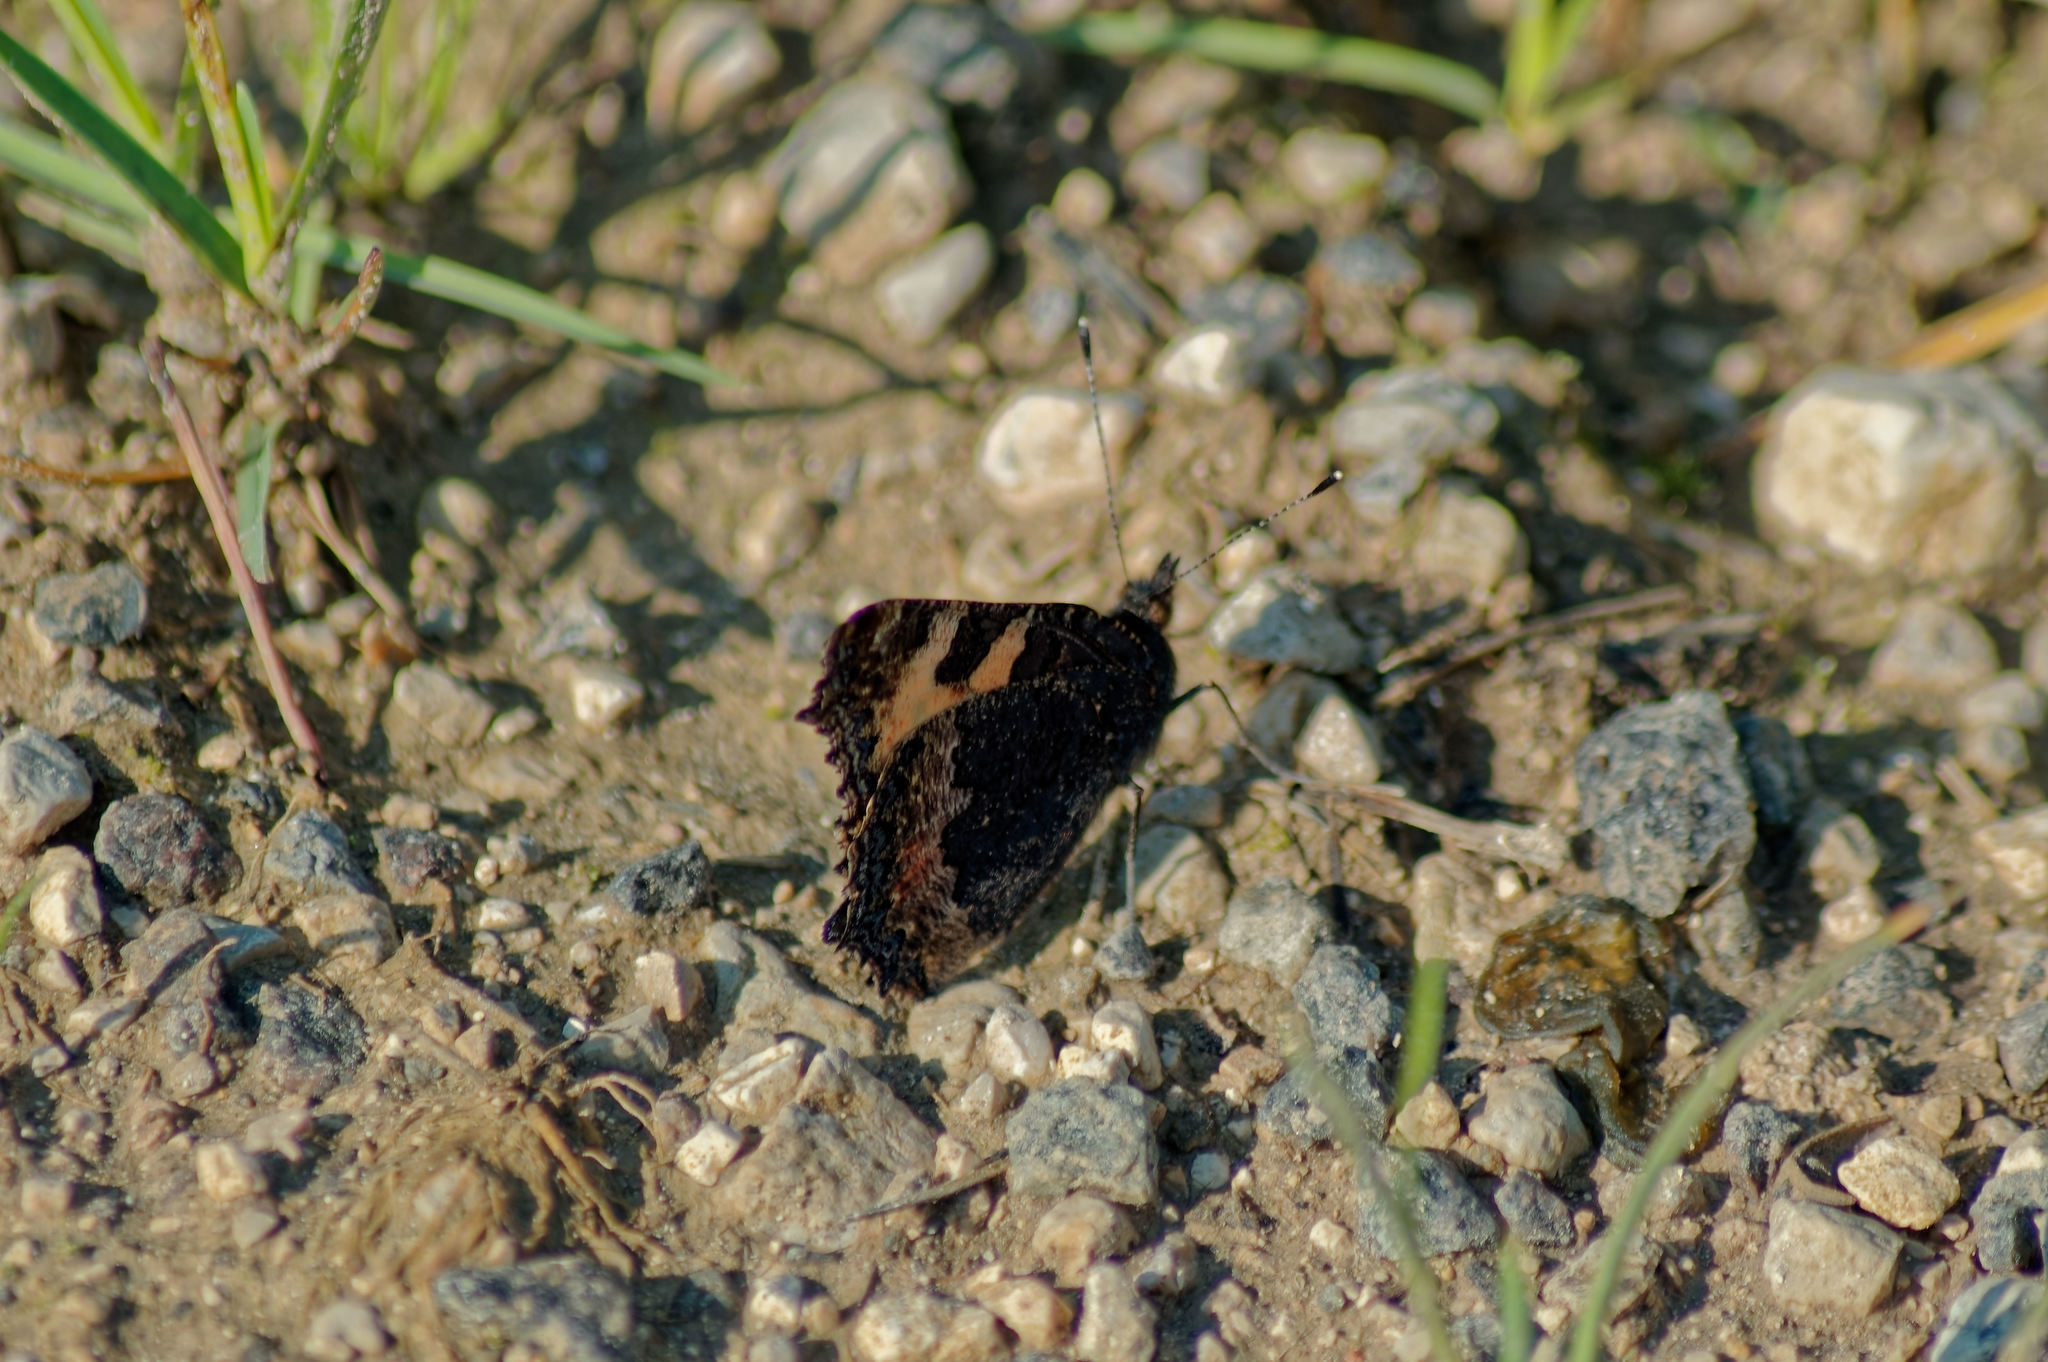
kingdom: Animalia
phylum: Arthropoda
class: Insecta
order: Lepidoptera
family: Nymphalidae
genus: Aglais
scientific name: Aglais urticae
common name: Small tortoiseshell
